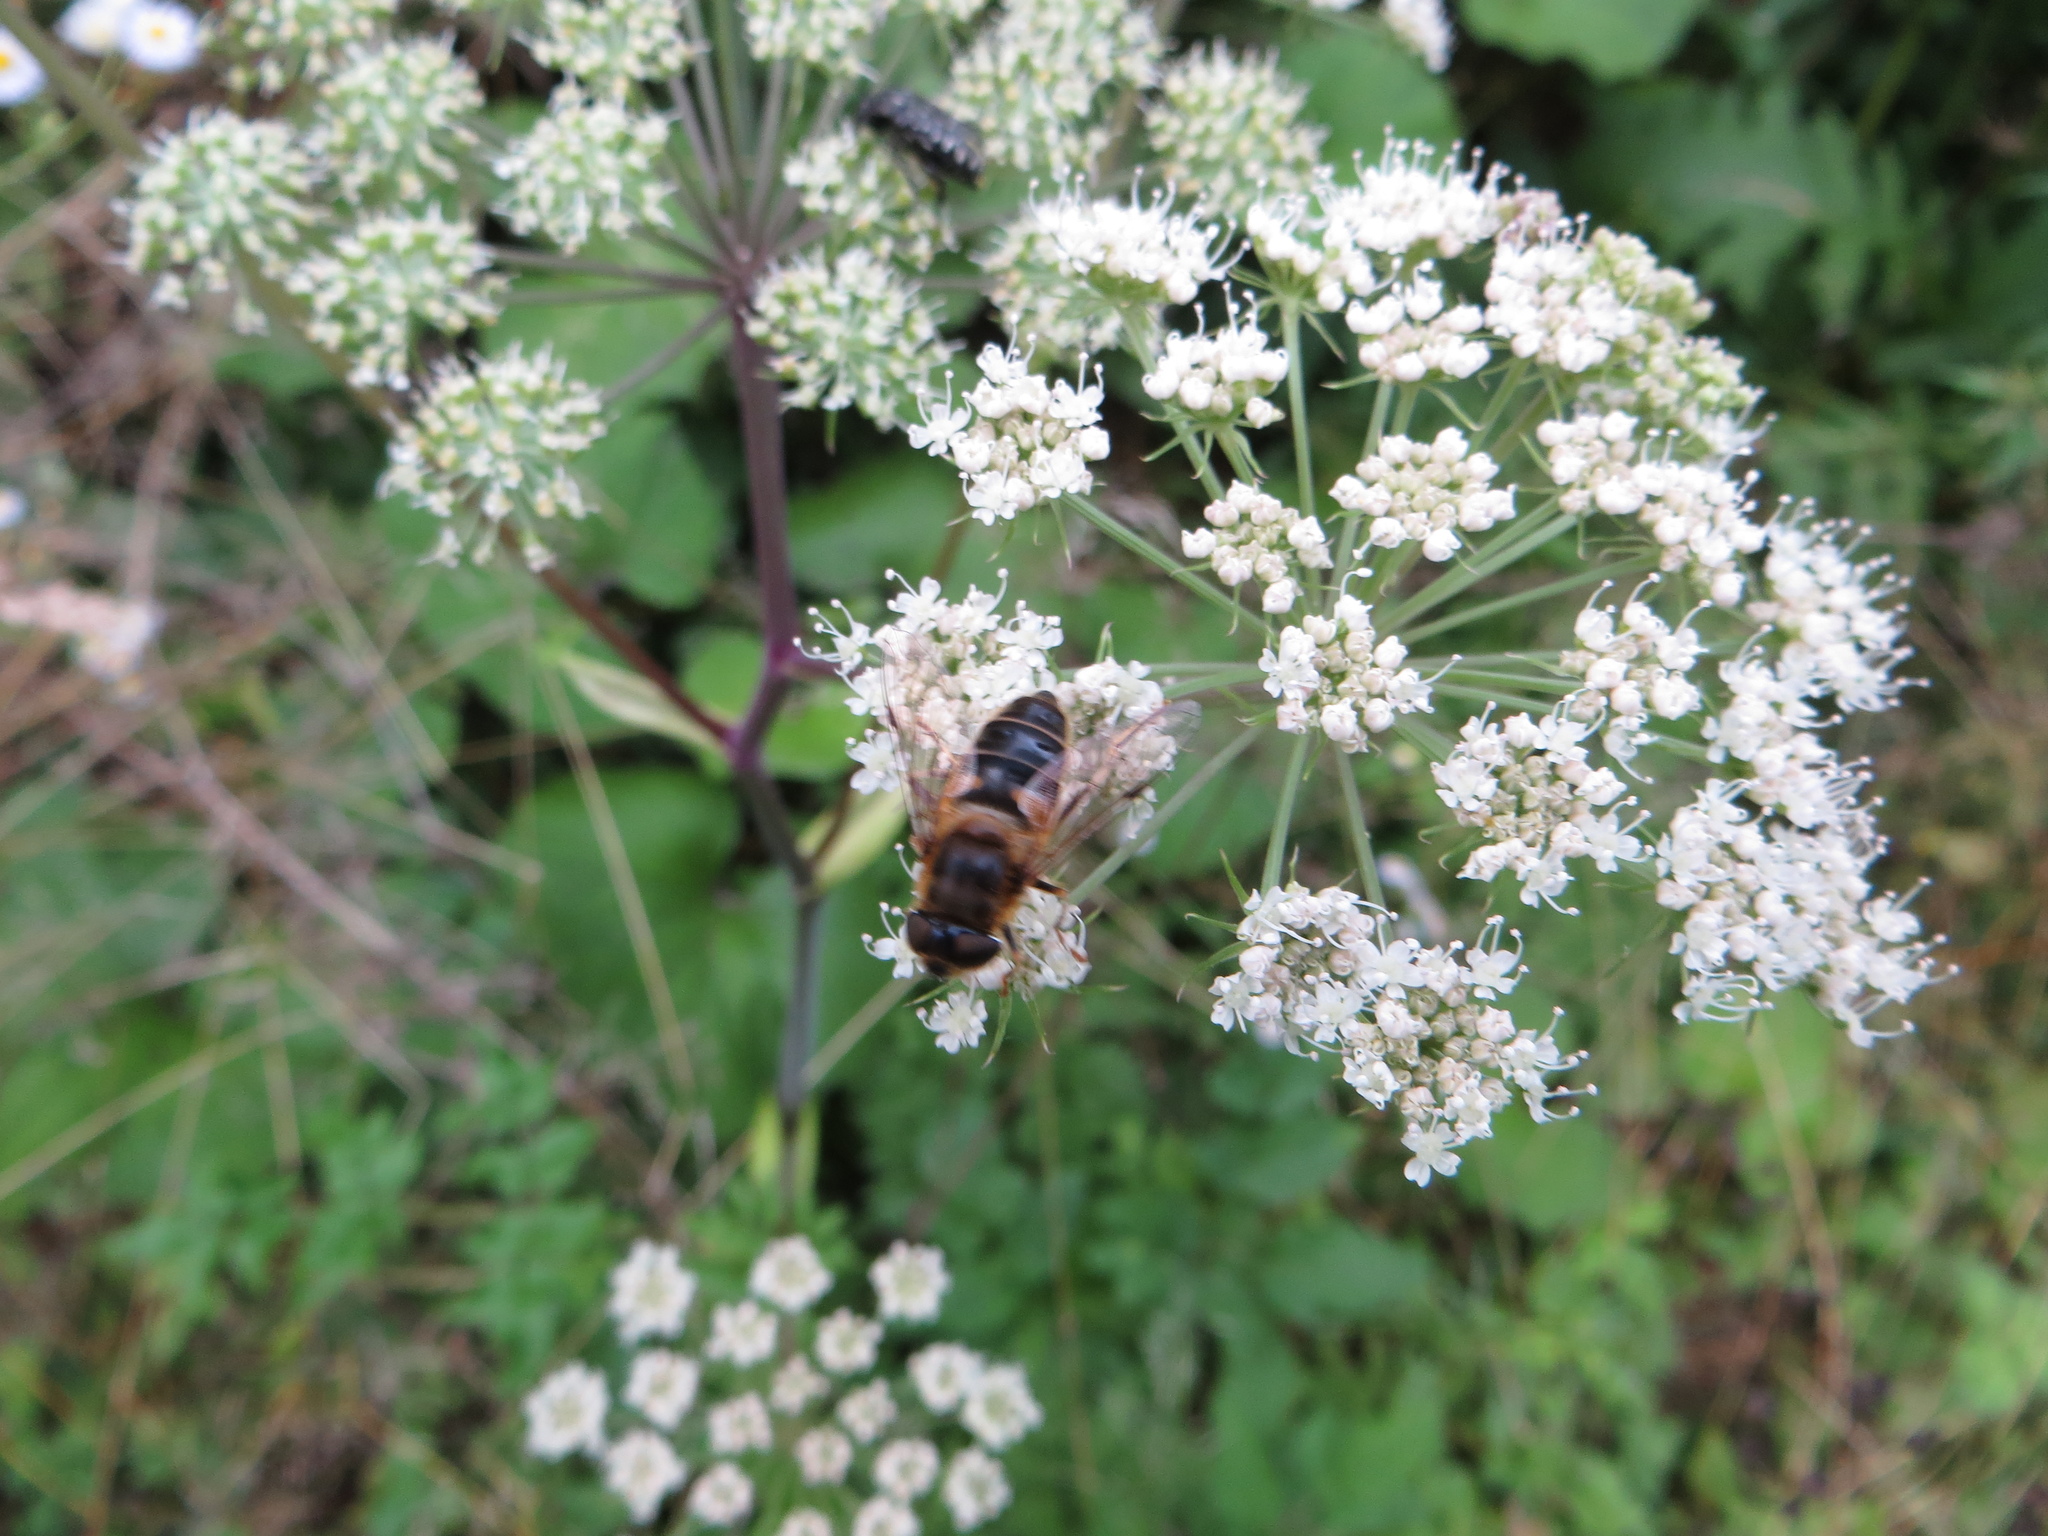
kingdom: Animalia
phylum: Arthropoda
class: Insecta
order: Diptera
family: Syrphidae
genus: Eristalis
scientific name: Eristalis pertinax
